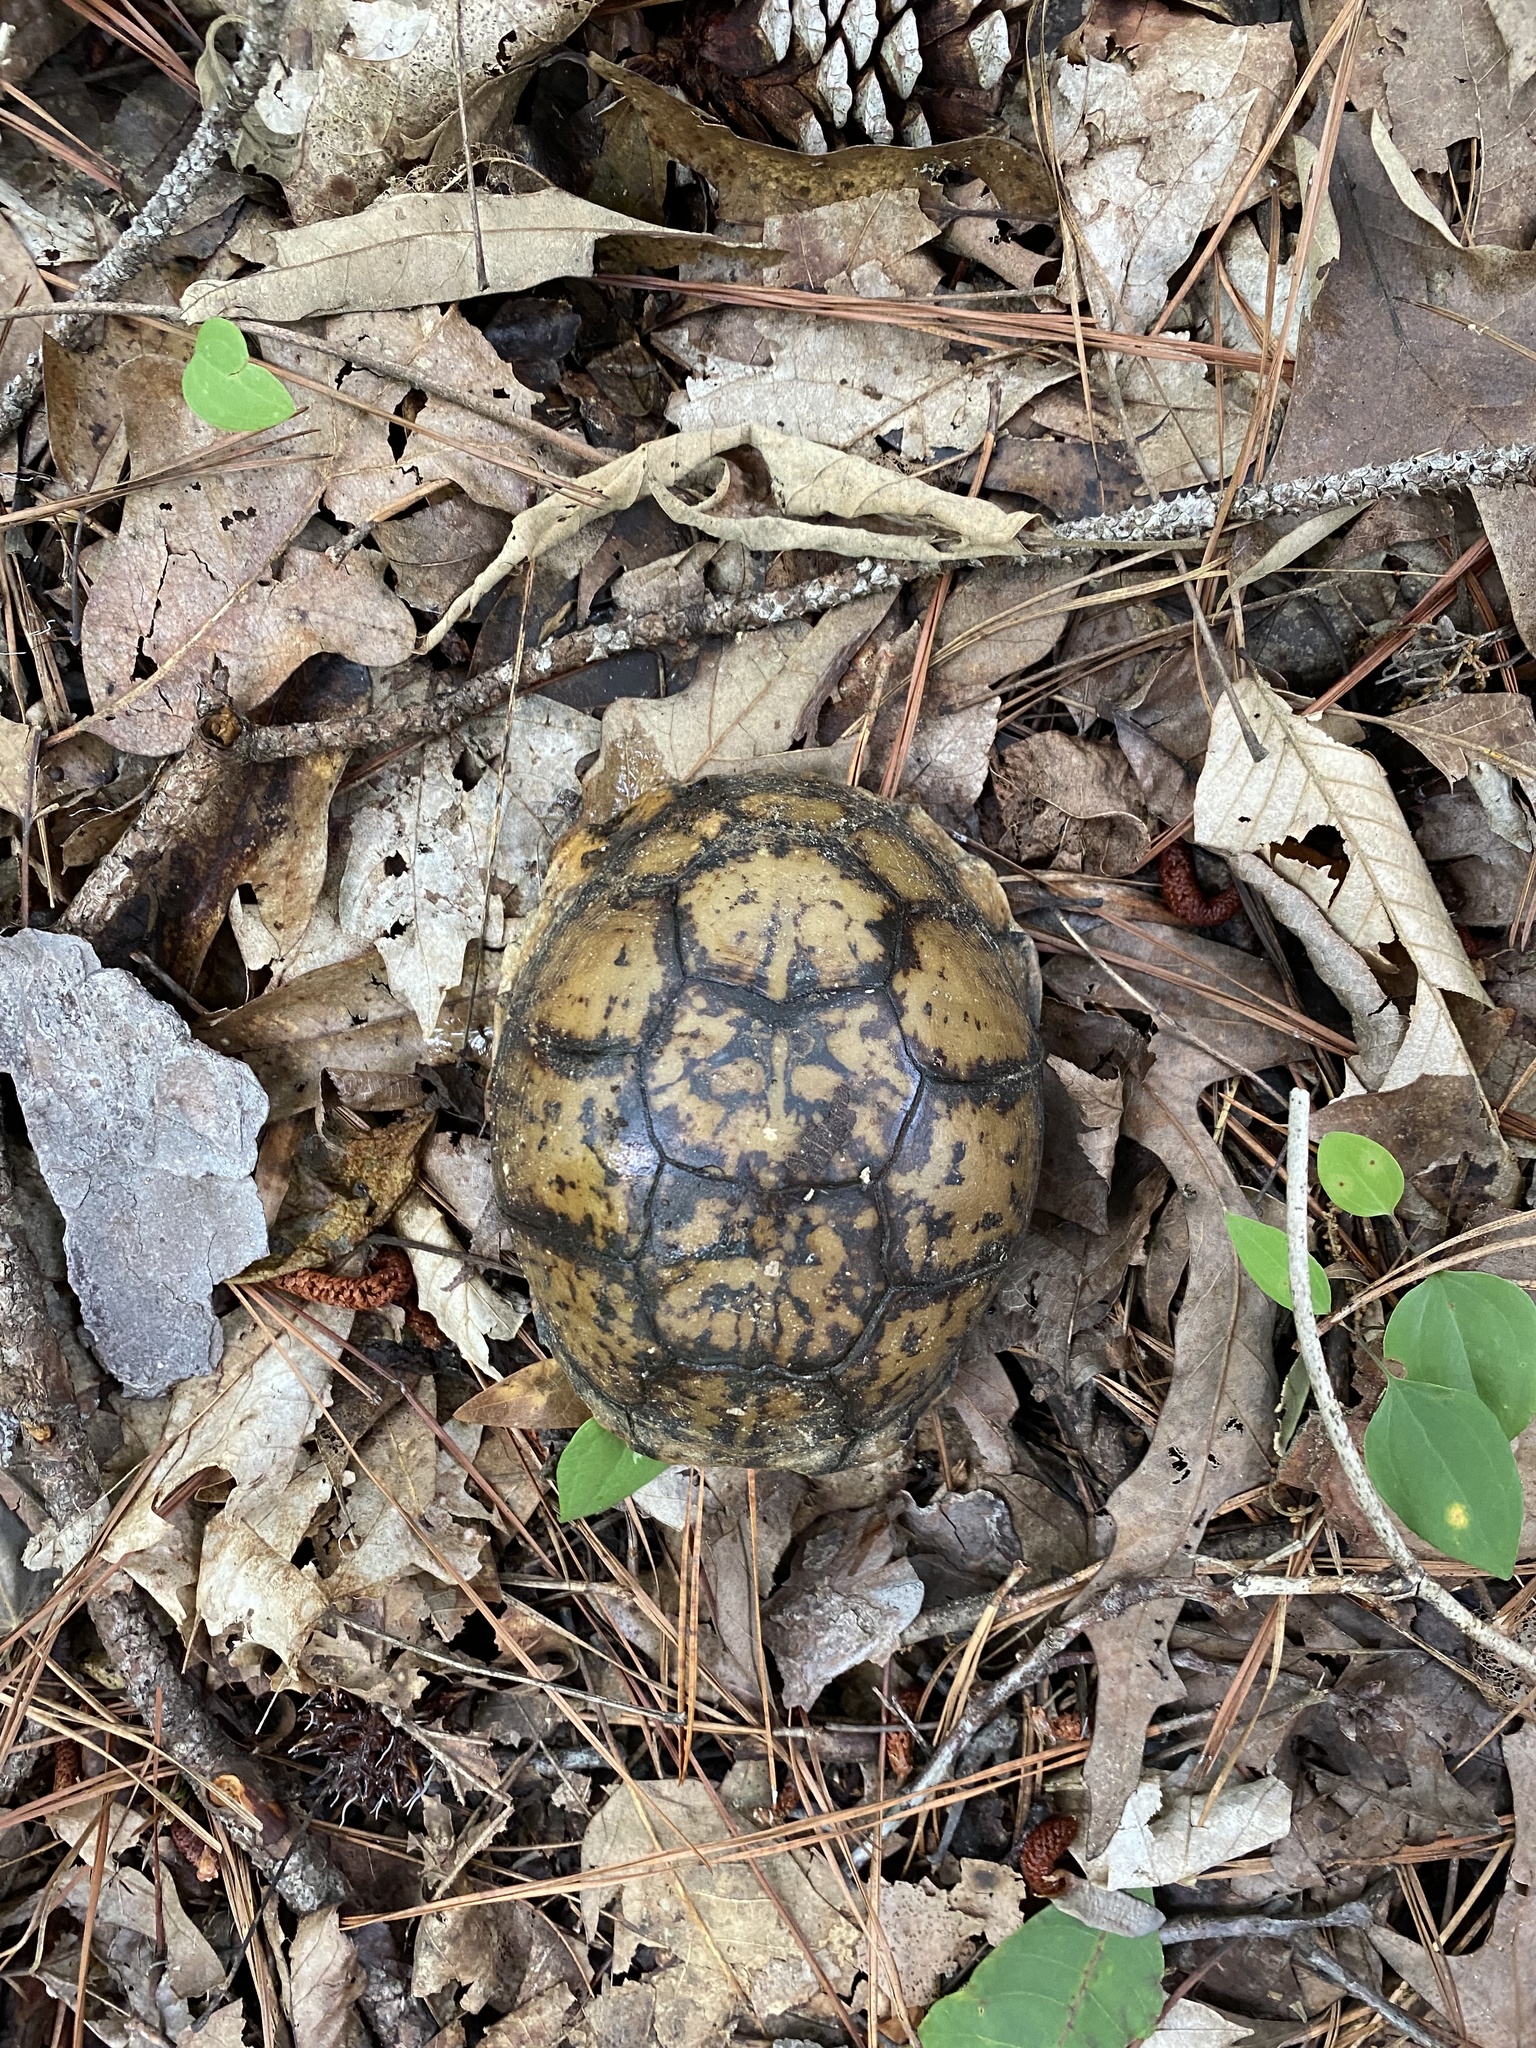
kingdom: Animalia
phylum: Chordata
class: Testudines
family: Emydidae
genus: Terrapene
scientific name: Terrapene carolina
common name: Common box turtle
